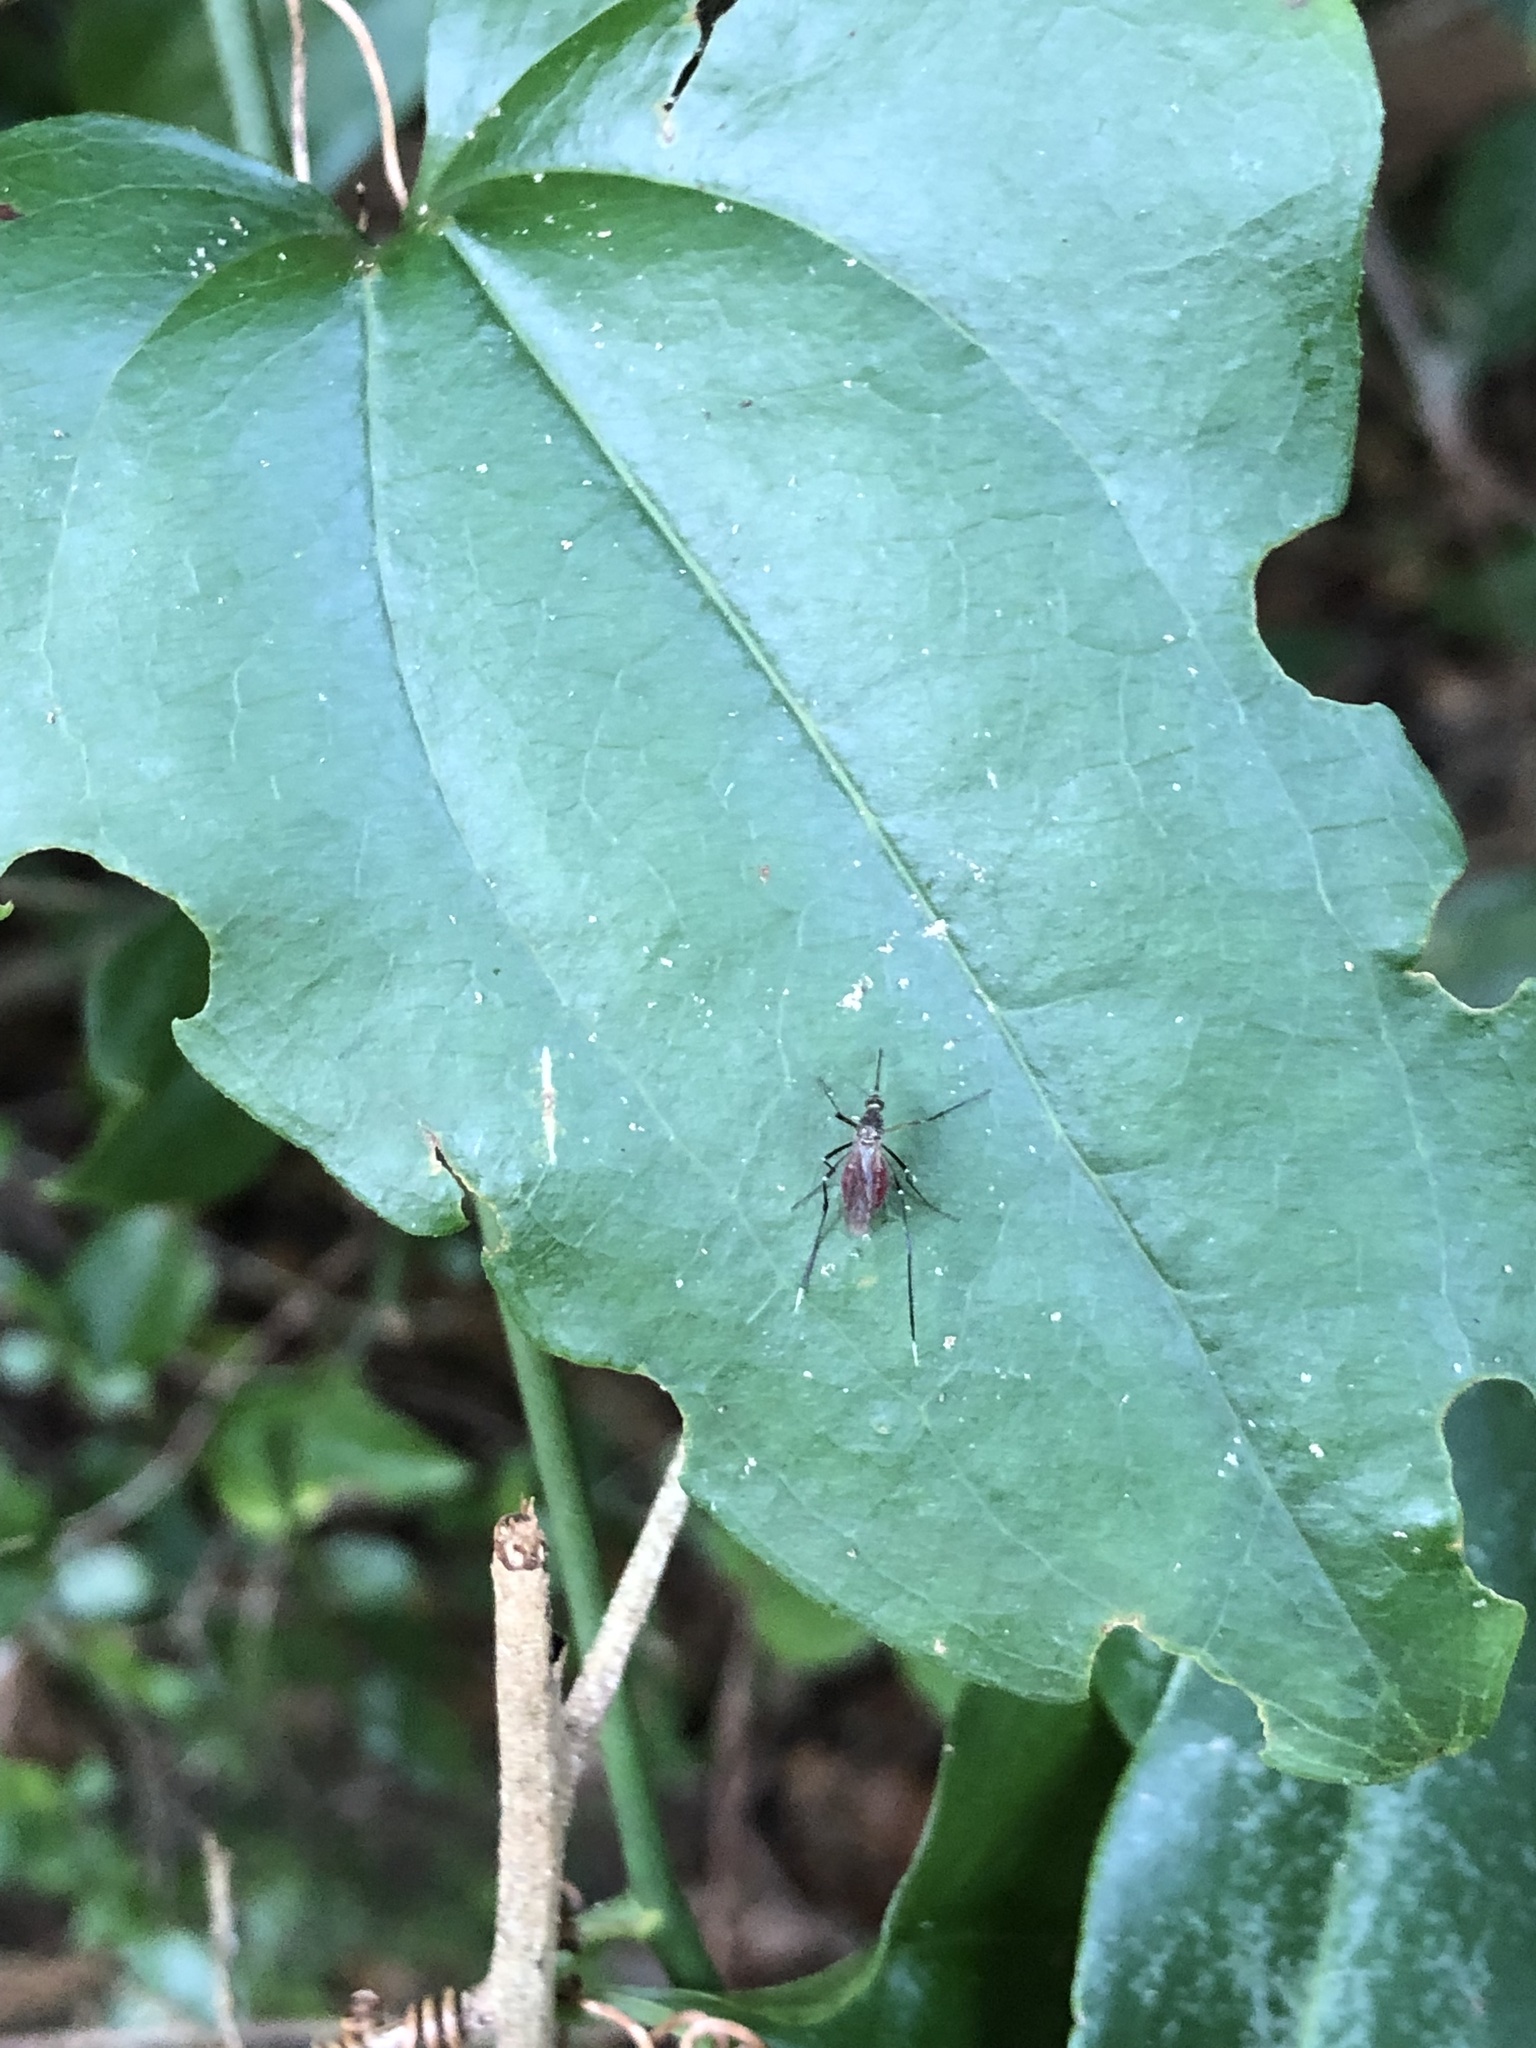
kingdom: Animalia
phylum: Arthropoda
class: Insecta
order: Diptera
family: Culicidae
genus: Psorophora
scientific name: Psorophora ferox
